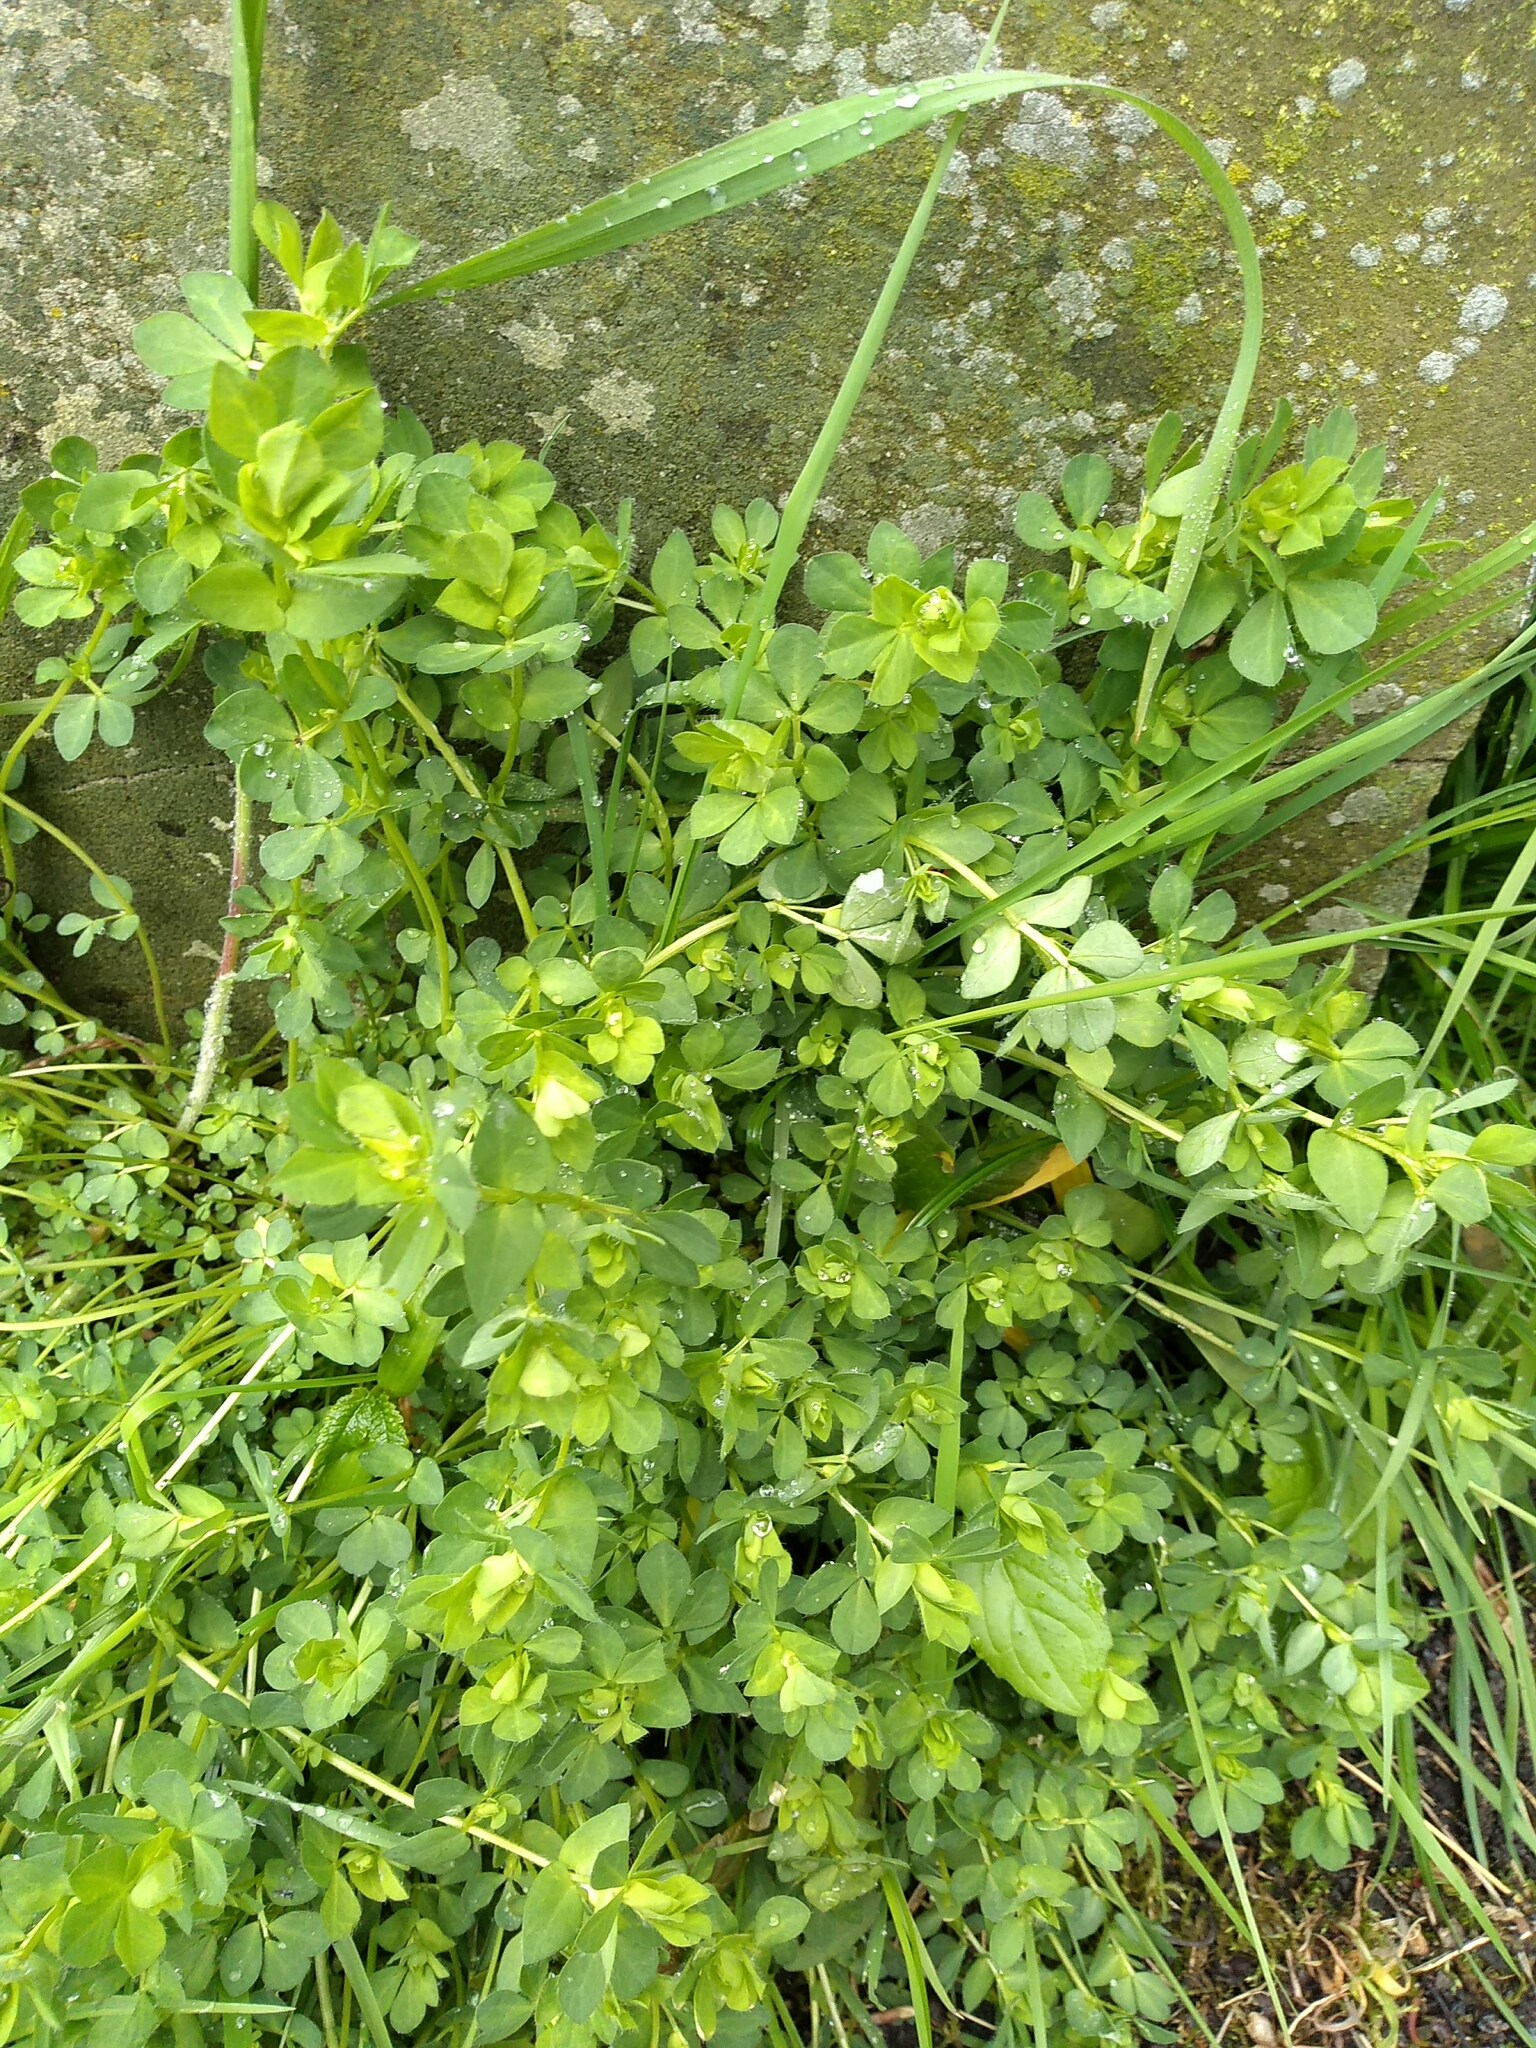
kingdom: Plantae
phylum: Tracheophyta
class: Magnoliopsida
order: Fabales
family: Fabaceae
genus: Lotus
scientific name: Lotus corniculatus
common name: Common bird's-foot-trefoil
